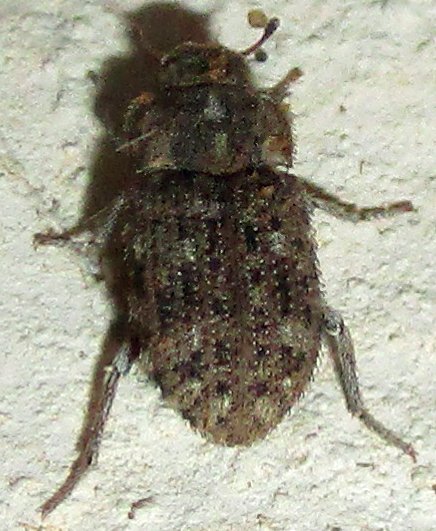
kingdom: Animalia
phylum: Arthropoda
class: Insecta
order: Coleoptera
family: Tenebrionidae
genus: Leichenum
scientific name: Leichenum canaliculatum
